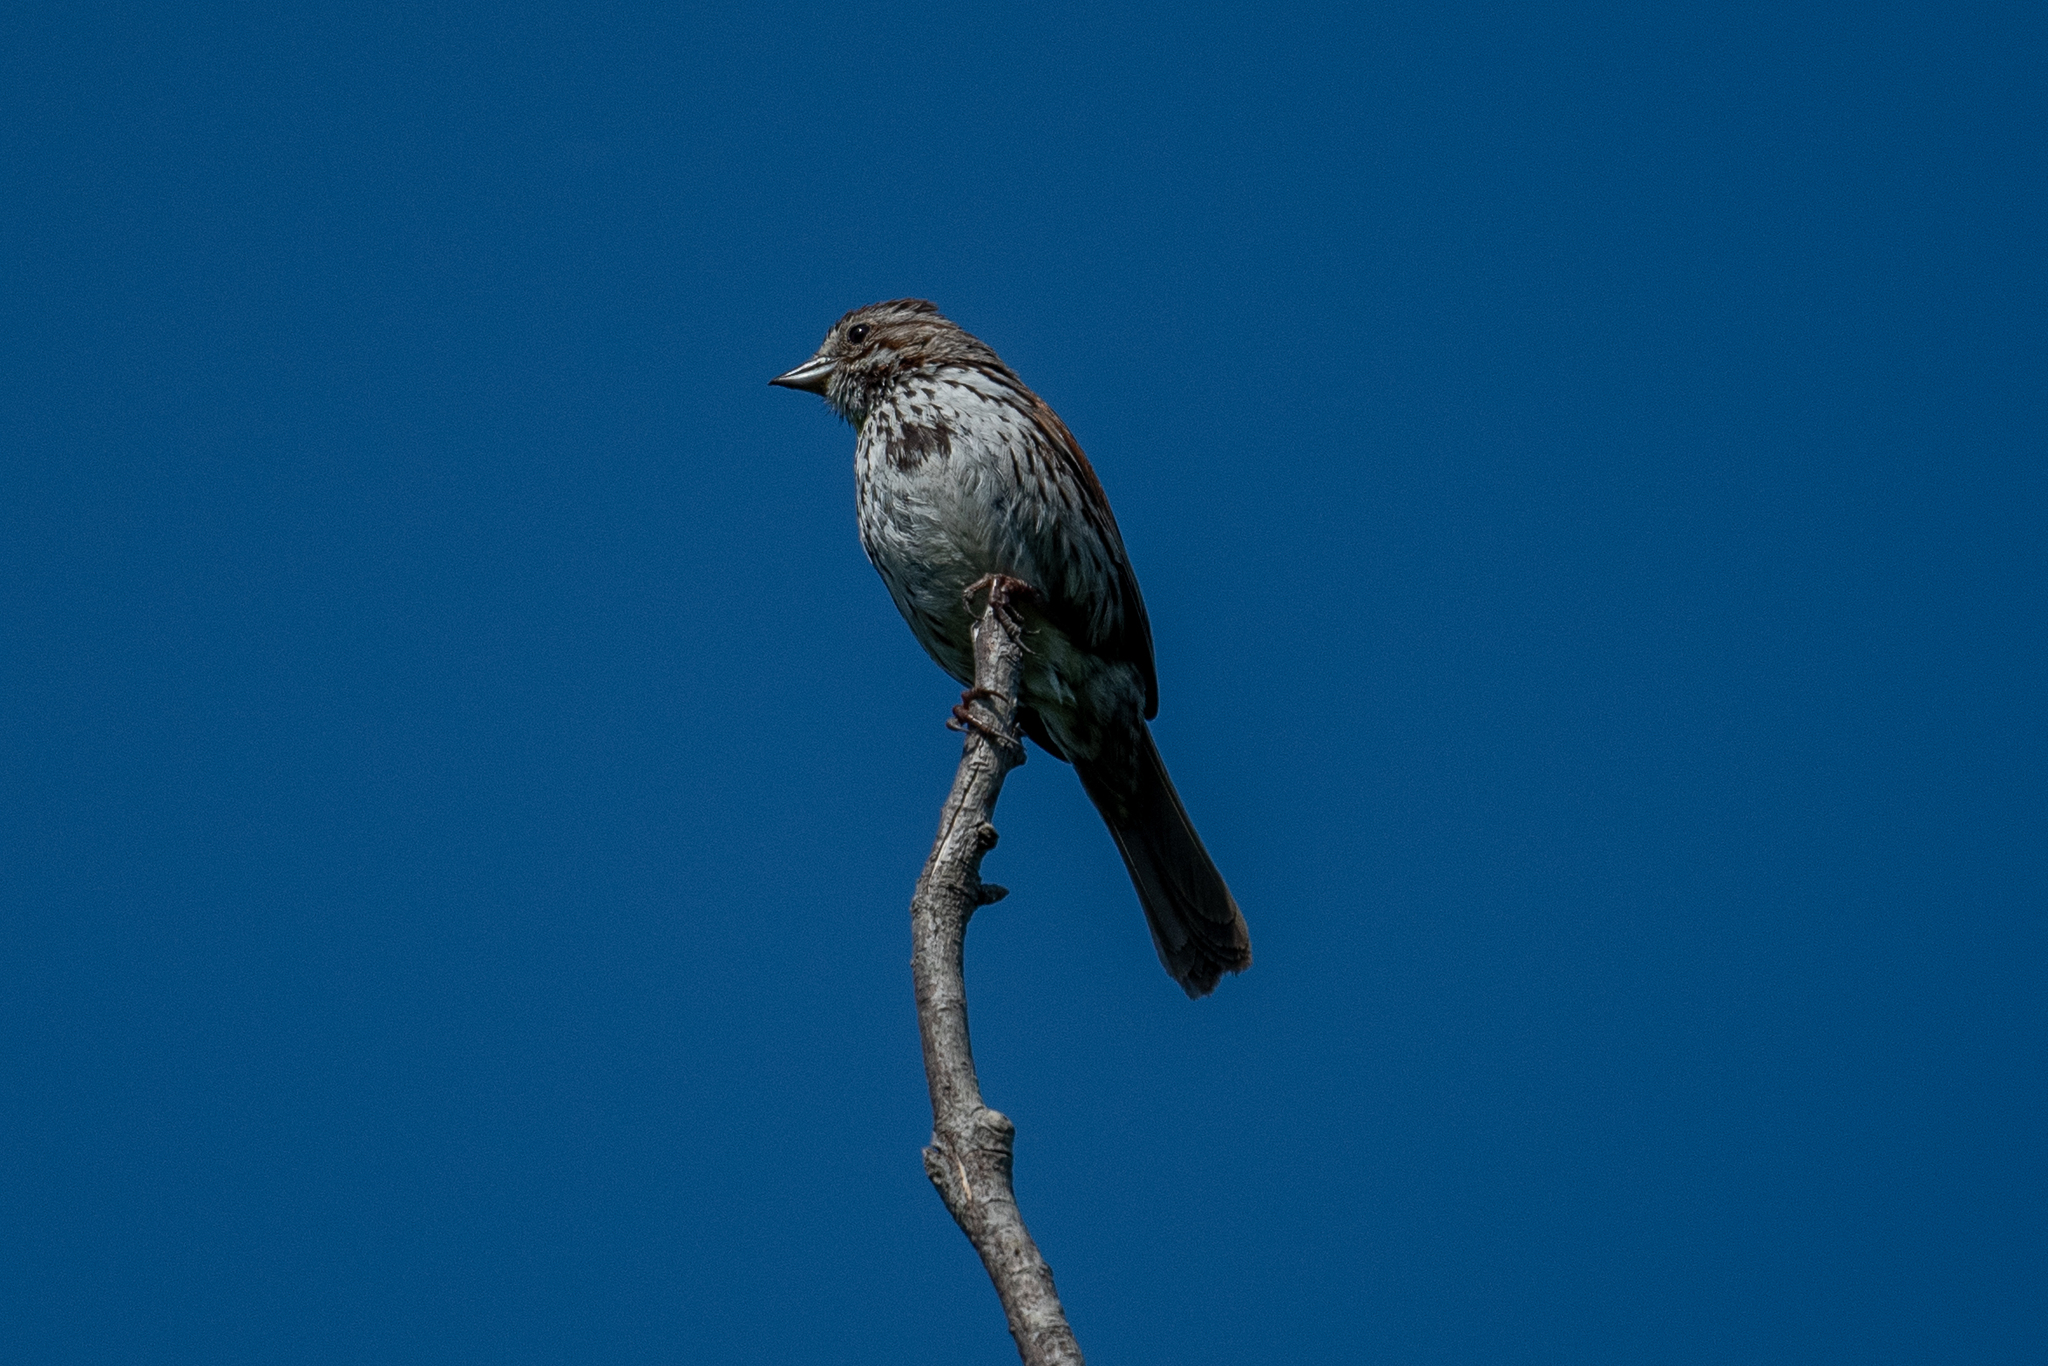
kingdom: Animalia
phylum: Chordata
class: Aves
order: Passeriformes
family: Passerellidae
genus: Melospiza
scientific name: Melospiza melodia
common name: Song sparrow
